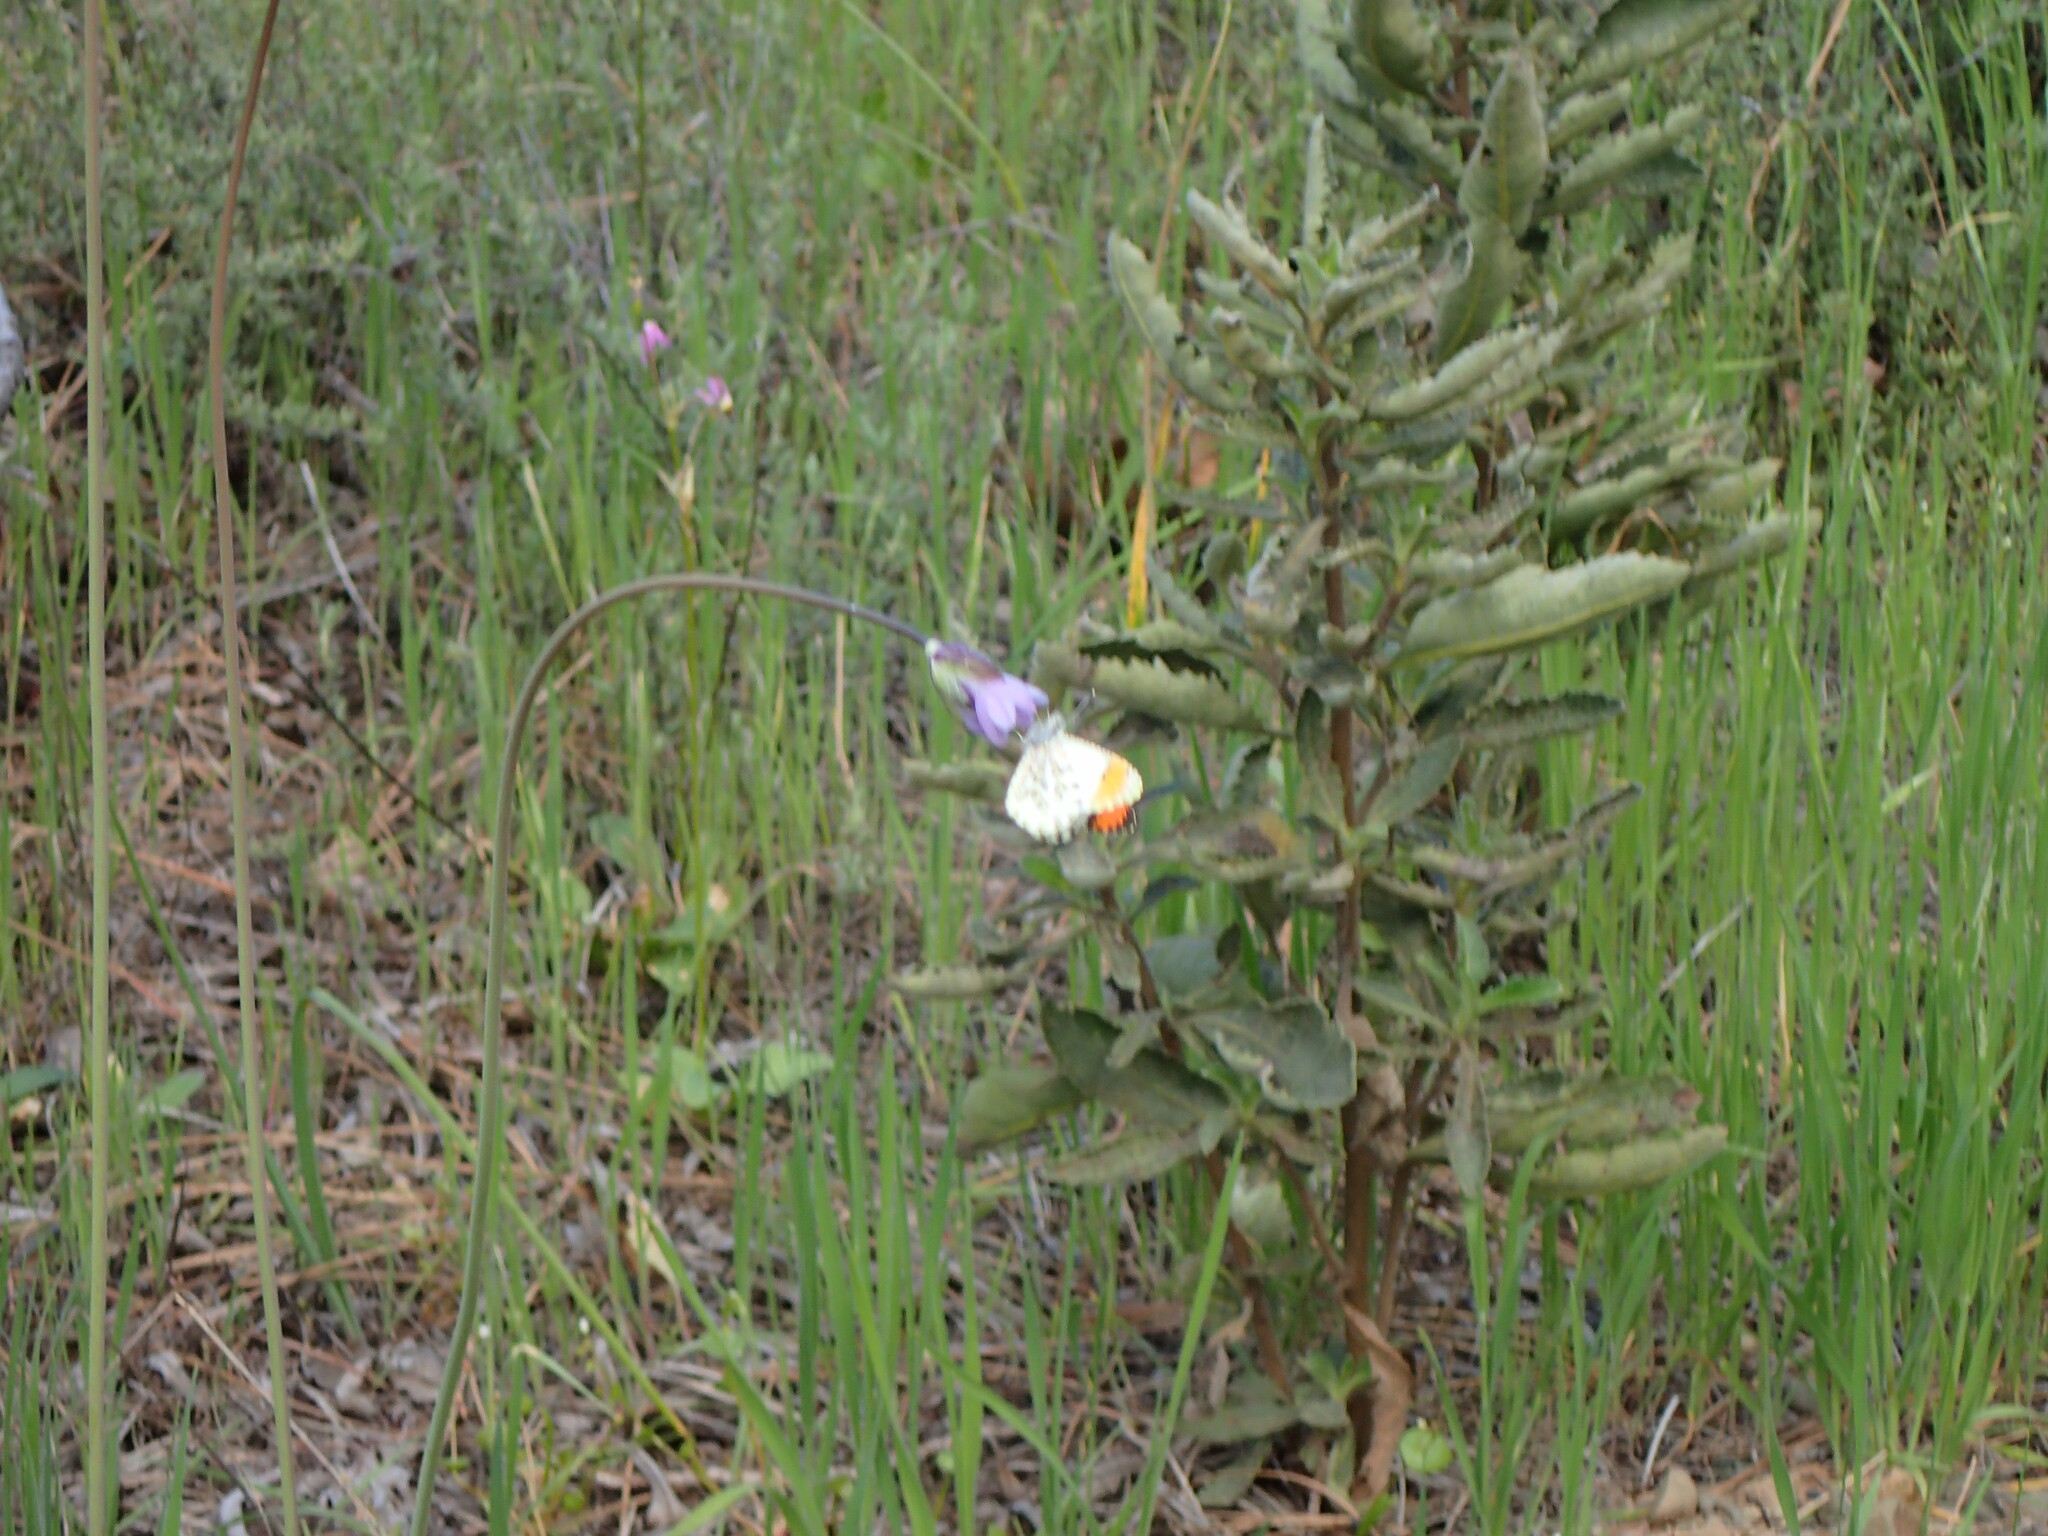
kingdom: Animalia
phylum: Arthropoda
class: Insecta
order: Lepidoptera
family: Pieridae
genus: Anthocharis
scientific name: Anthocharis sara
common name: Sara's orangetip
